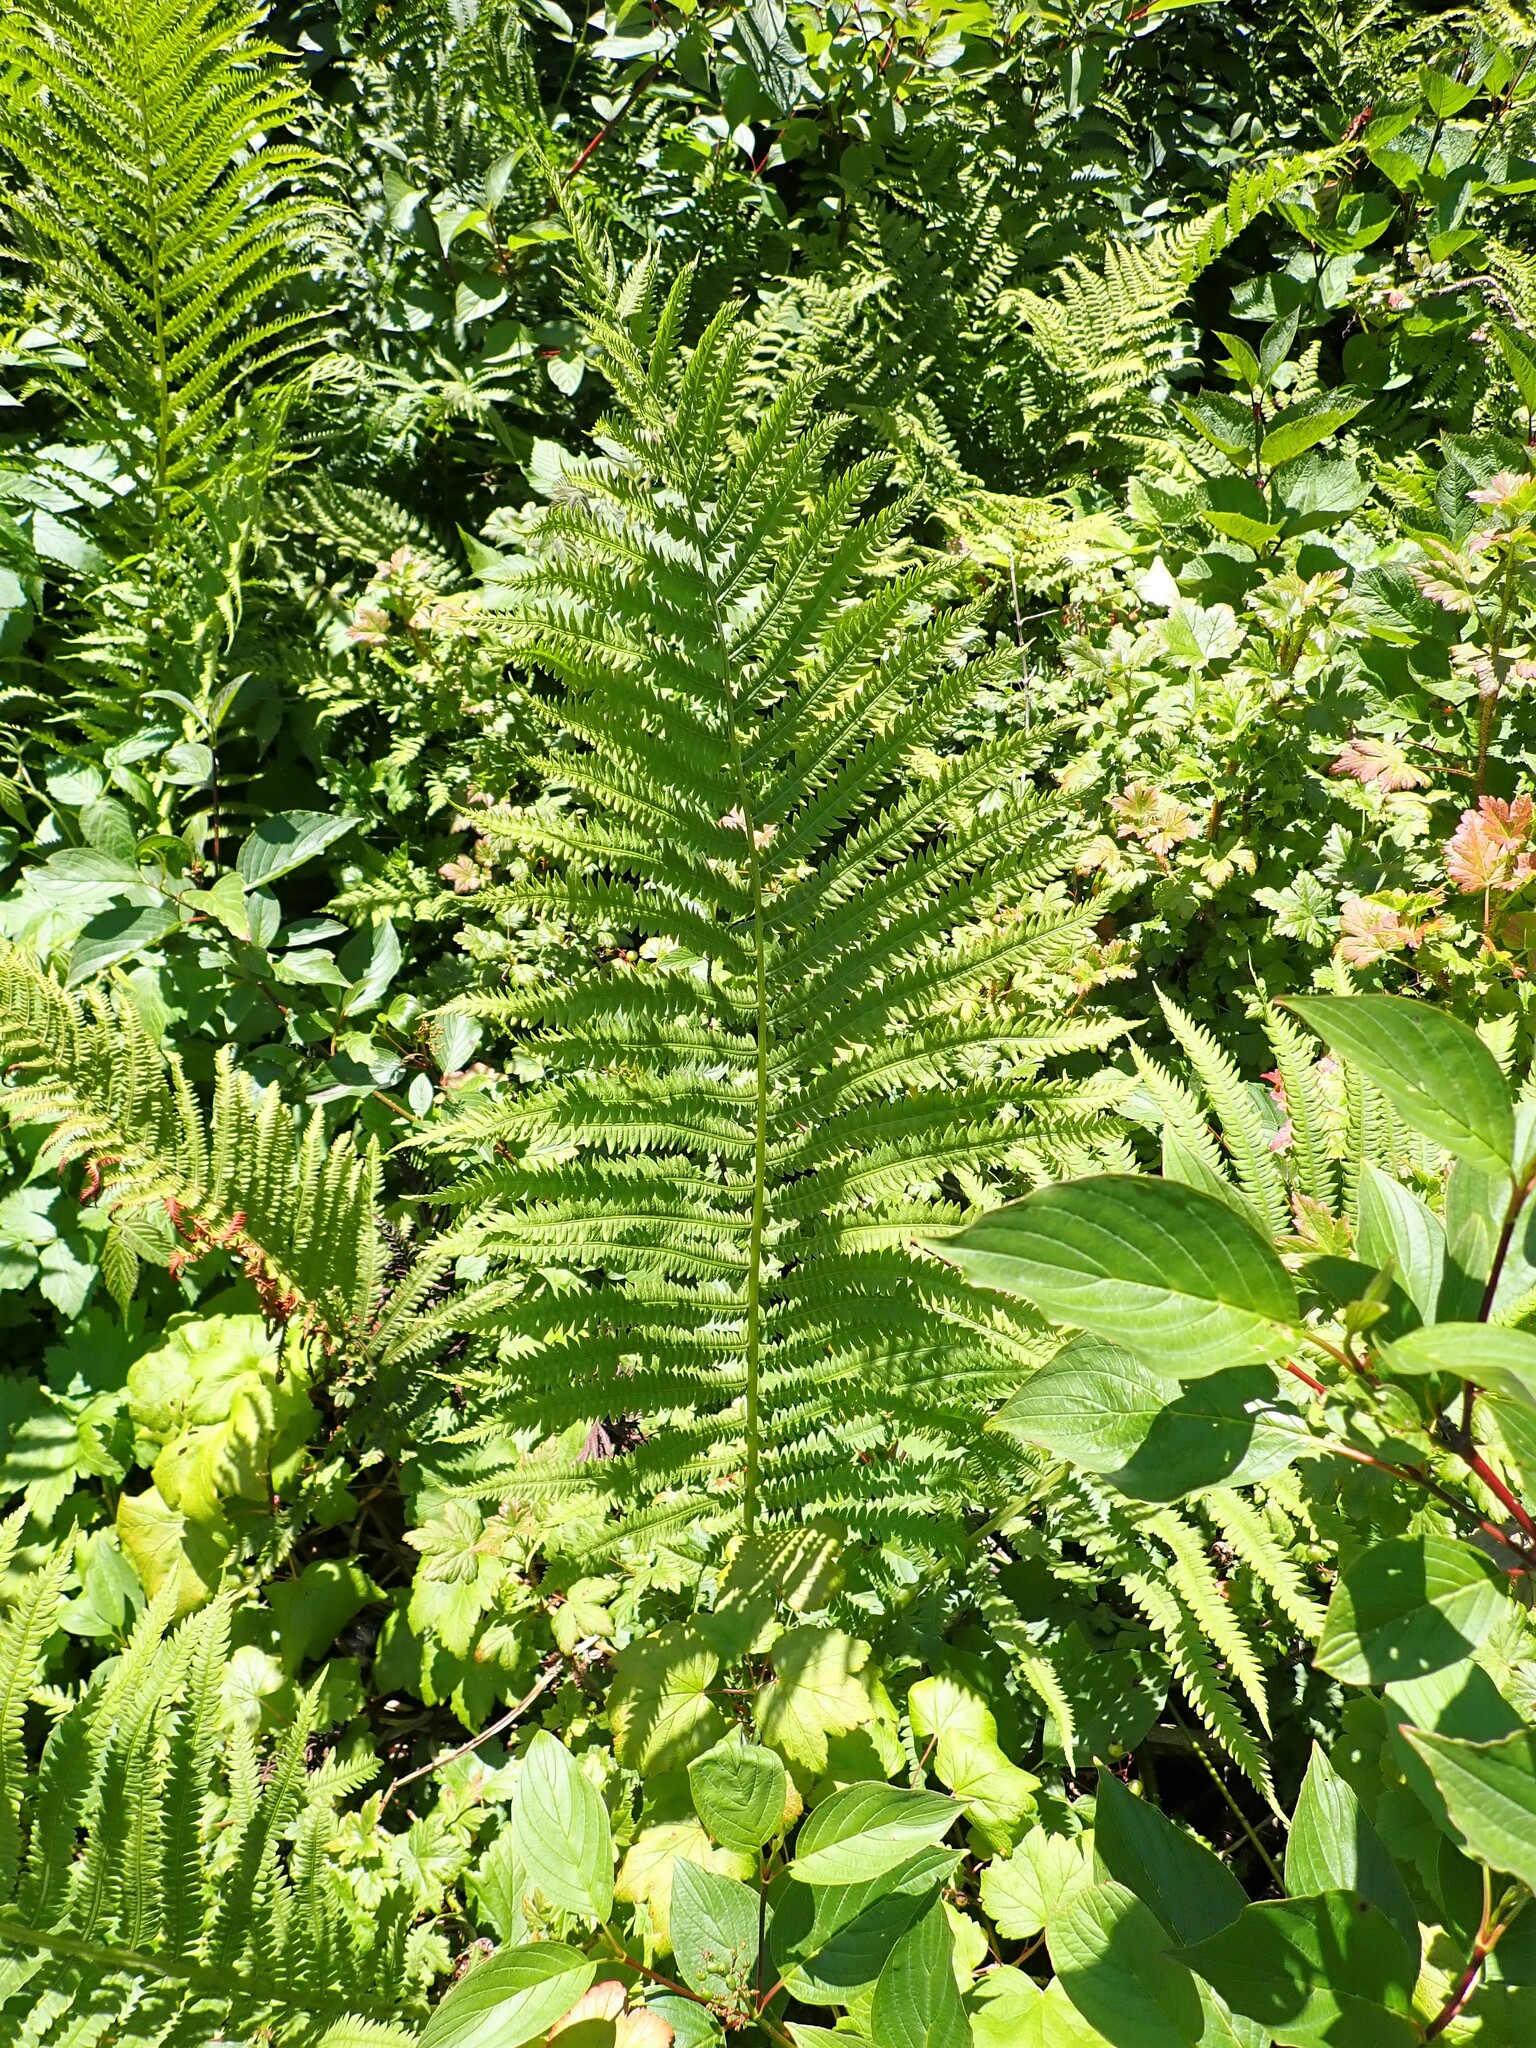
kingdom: Plantae
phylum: Tracheophyta
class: Polypodiopsida
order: Polypodiales
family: Onocleaceae
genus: Matteuccia
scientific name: Matteuccia struthiopteris
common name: Ostrich fern
